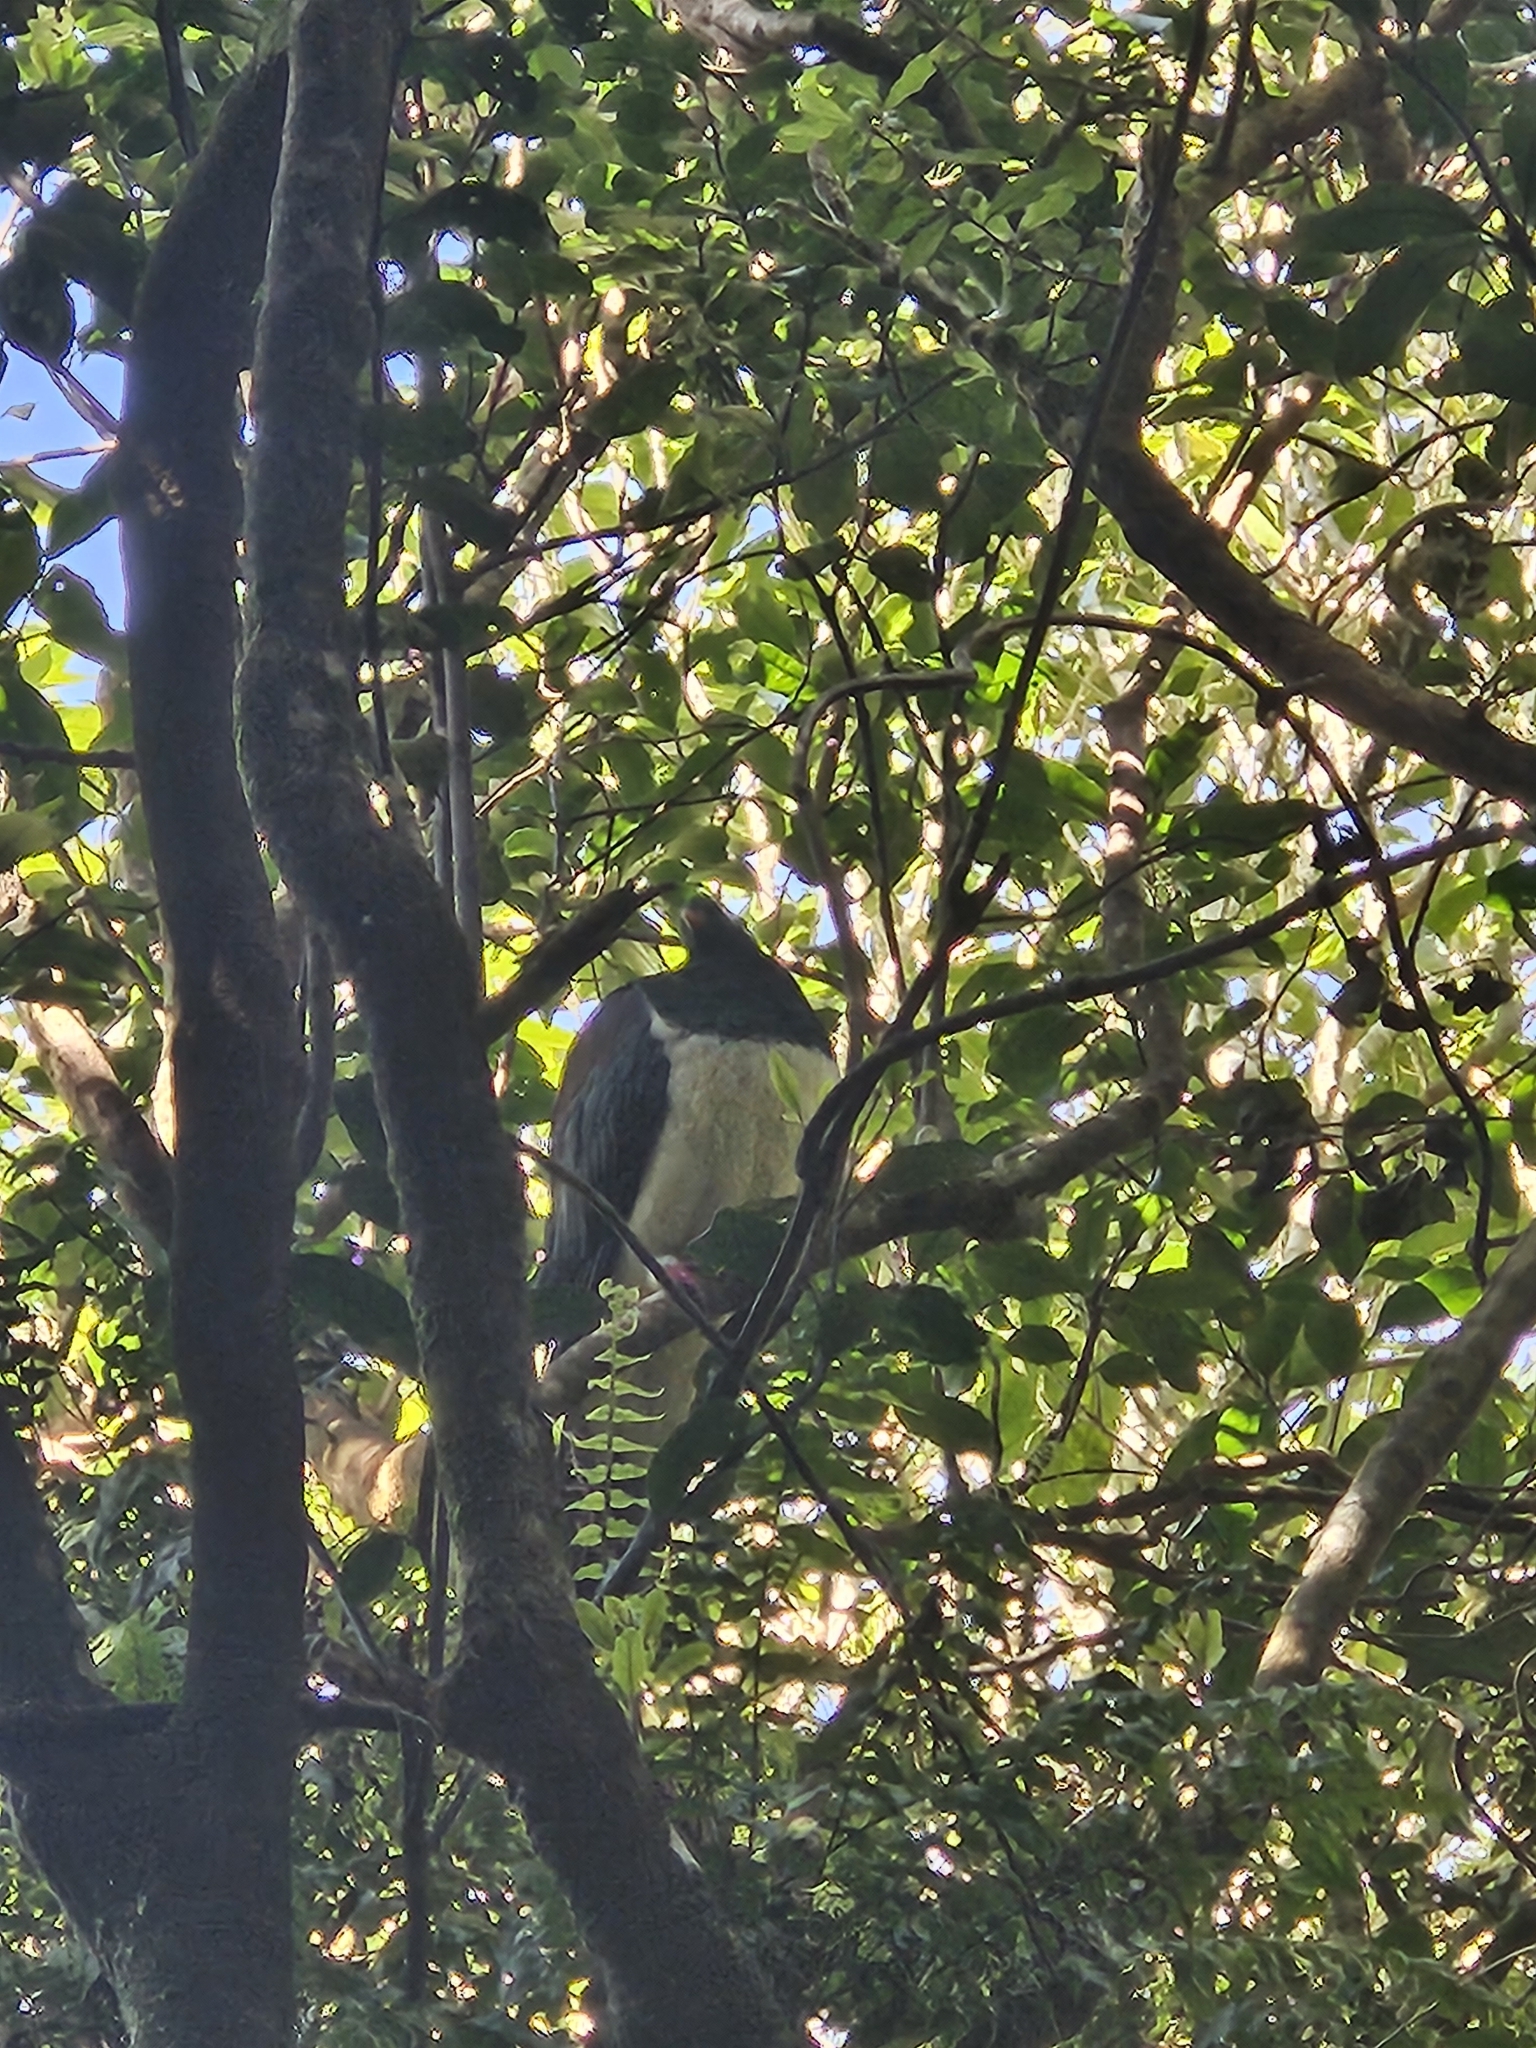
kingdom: Animalia
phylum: Chordata
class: Aves
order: Columbiformes
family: Columbidae
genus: Hemiphaga
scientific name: Hemiphaga novaeseelandiae
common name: New zealand pigeon
